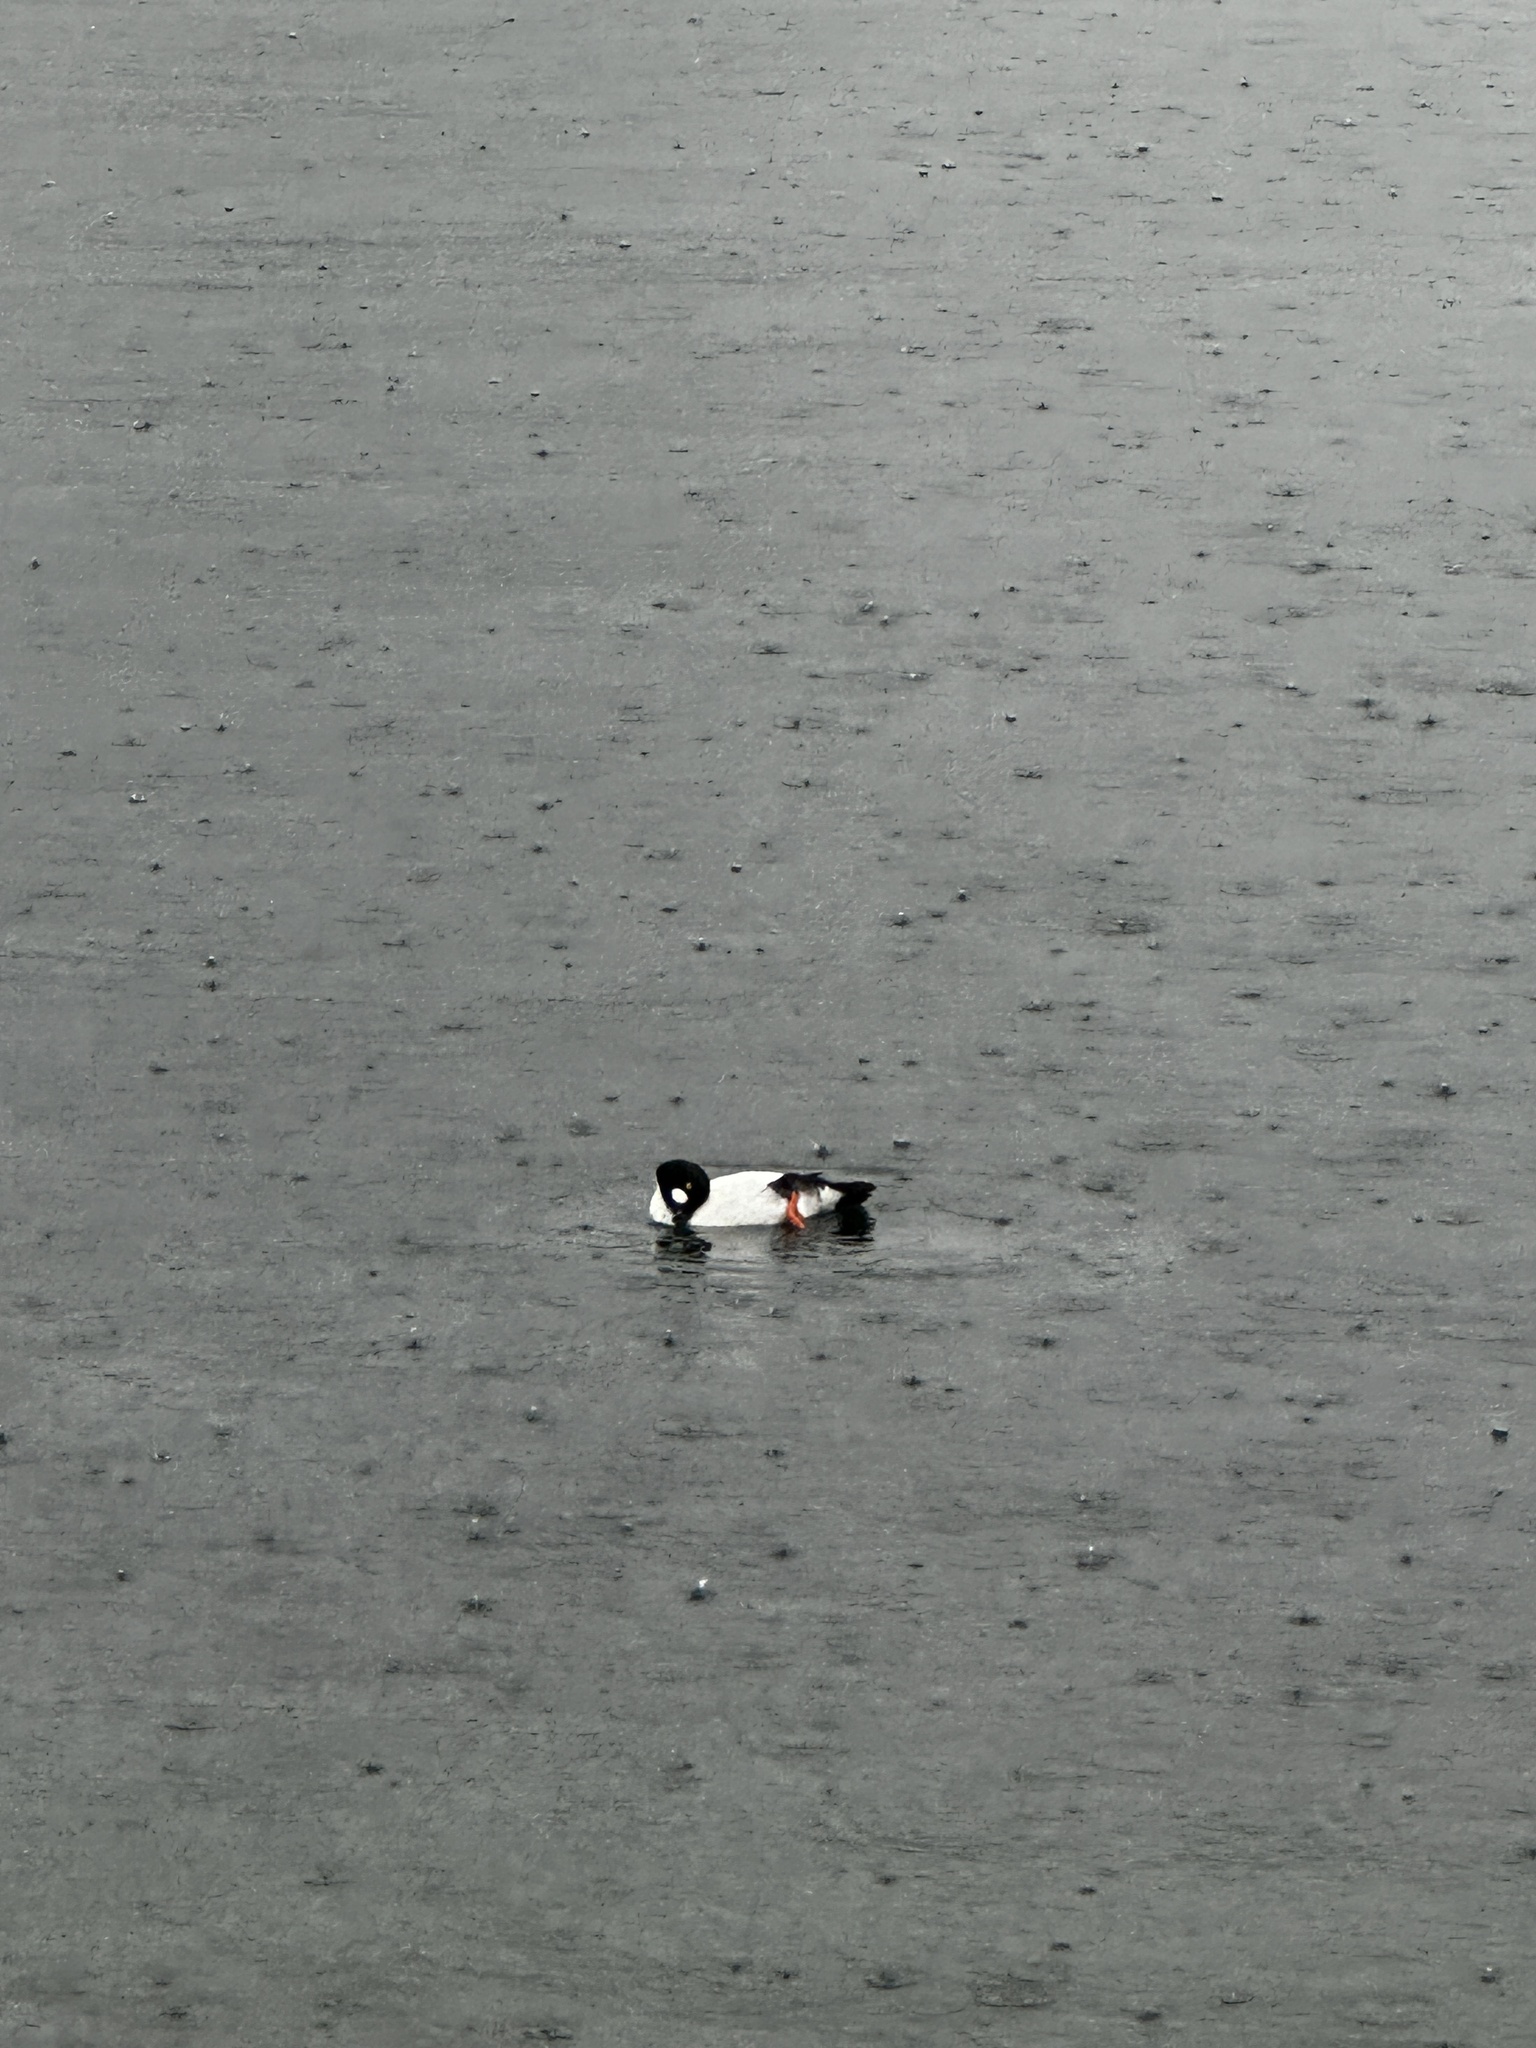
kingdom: Animalia
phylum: Chordata
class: Aves
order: Anseriformes
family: Anatidae
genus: Bucephala
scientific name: Bucephala clangula
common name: Common goldeneye
